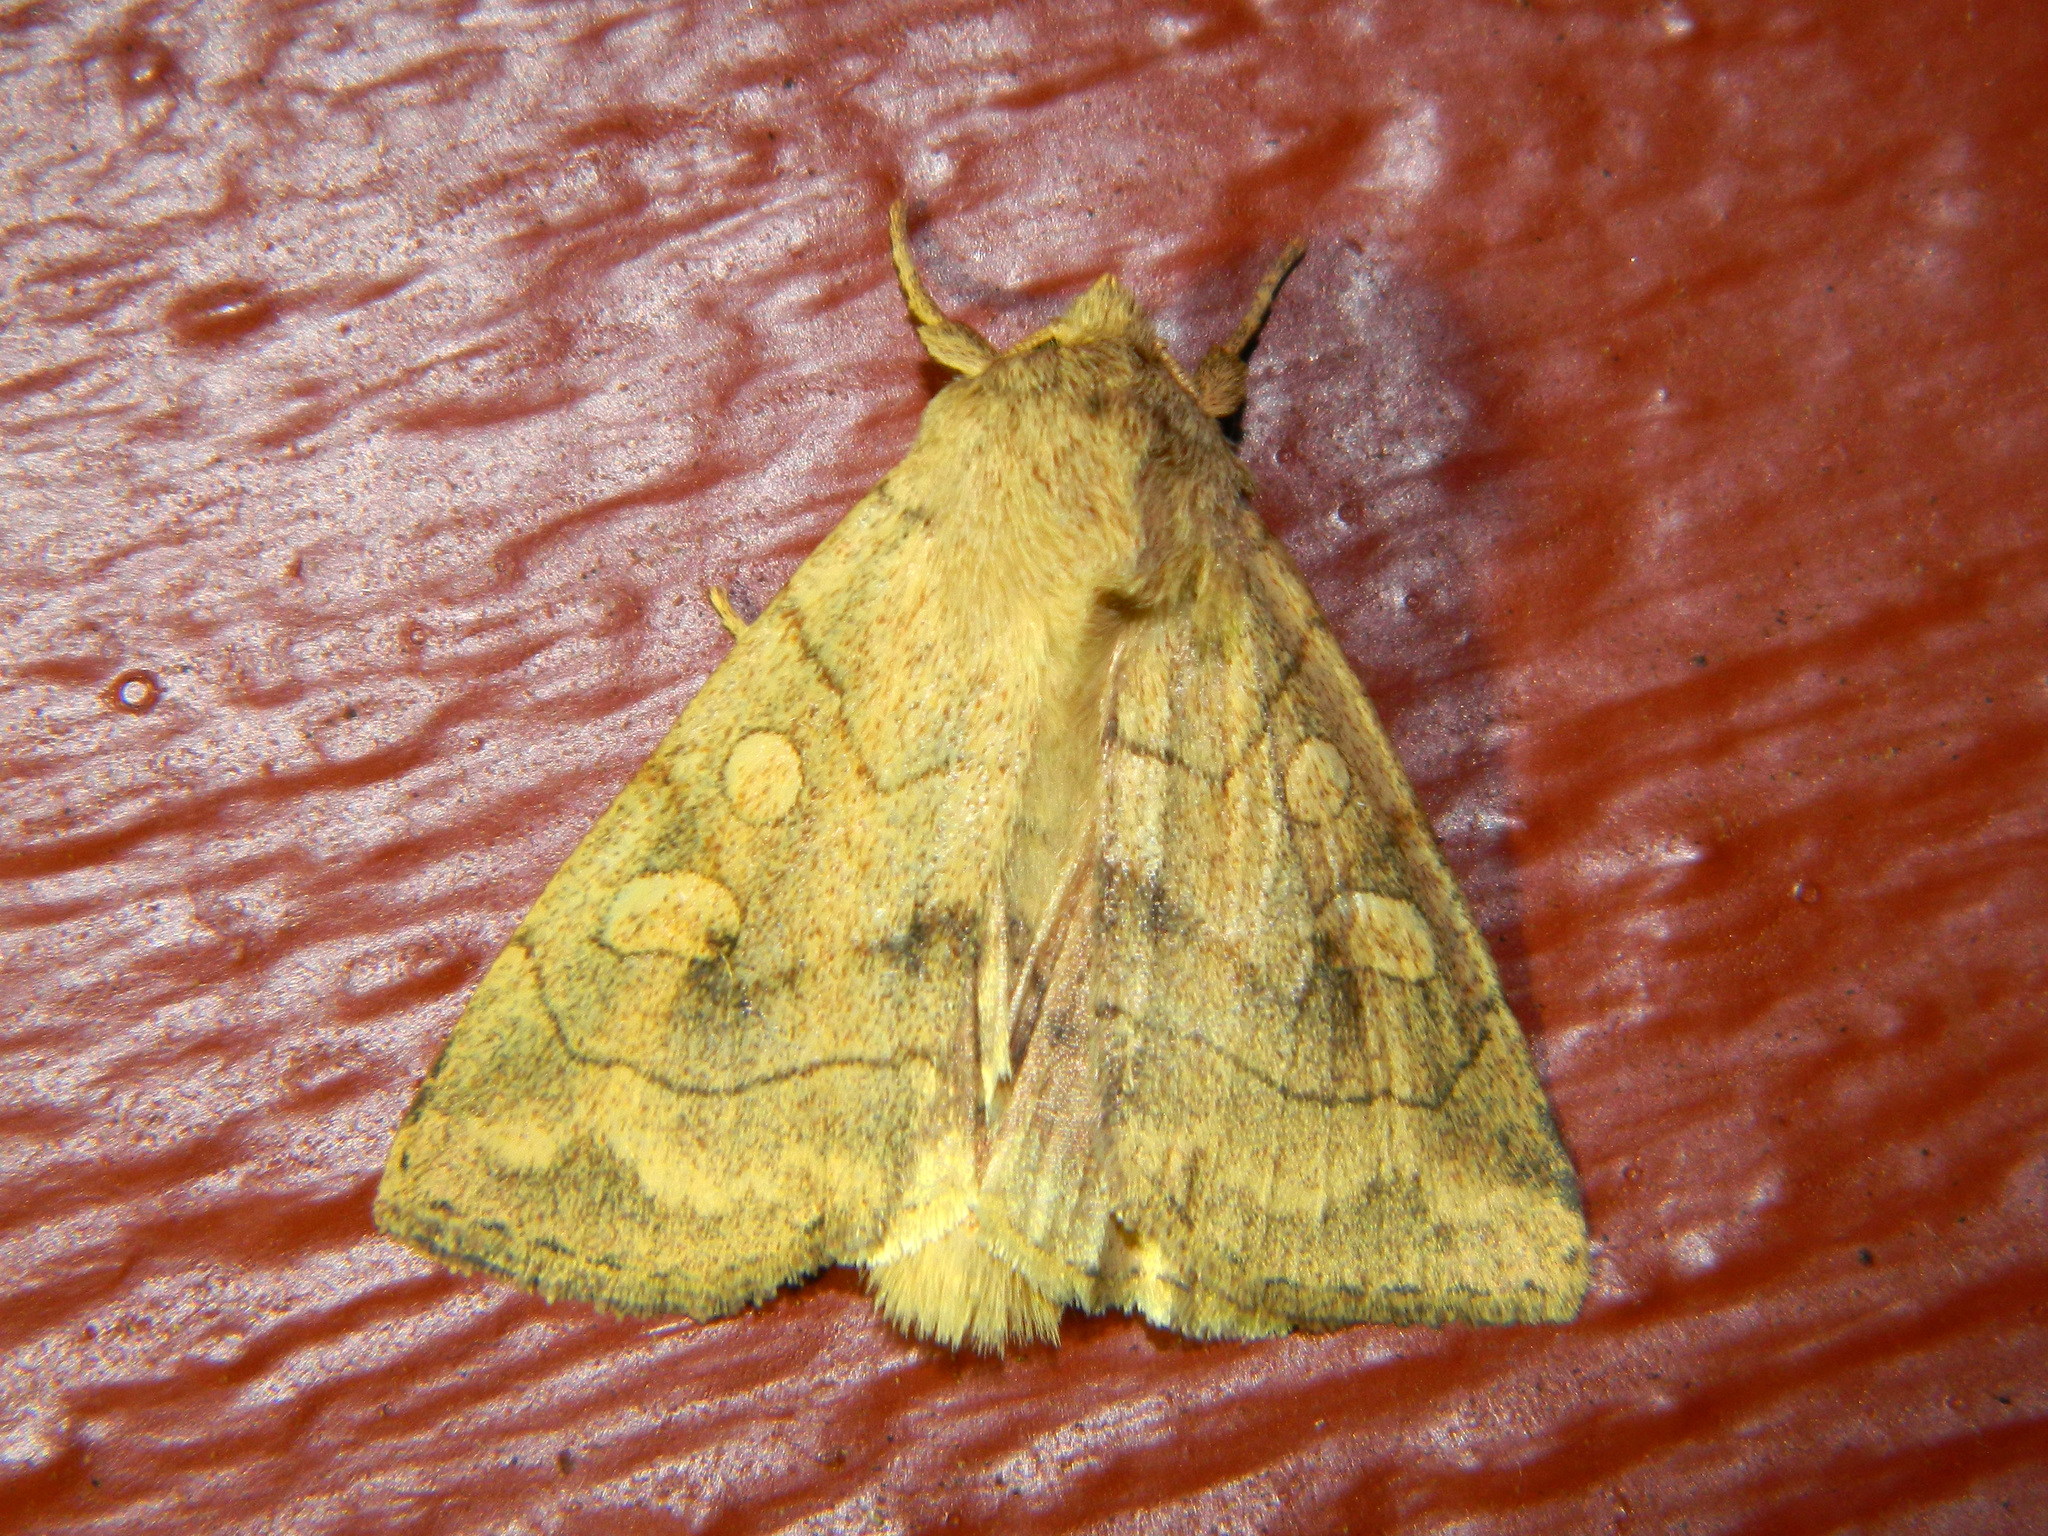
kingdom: Animalia
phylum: Arthropoda
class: Insecta
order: Lepidoptera
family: Noctuidae
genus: Enargia
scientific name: Enargia decolor
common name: Aspen twoleaf tier moth
